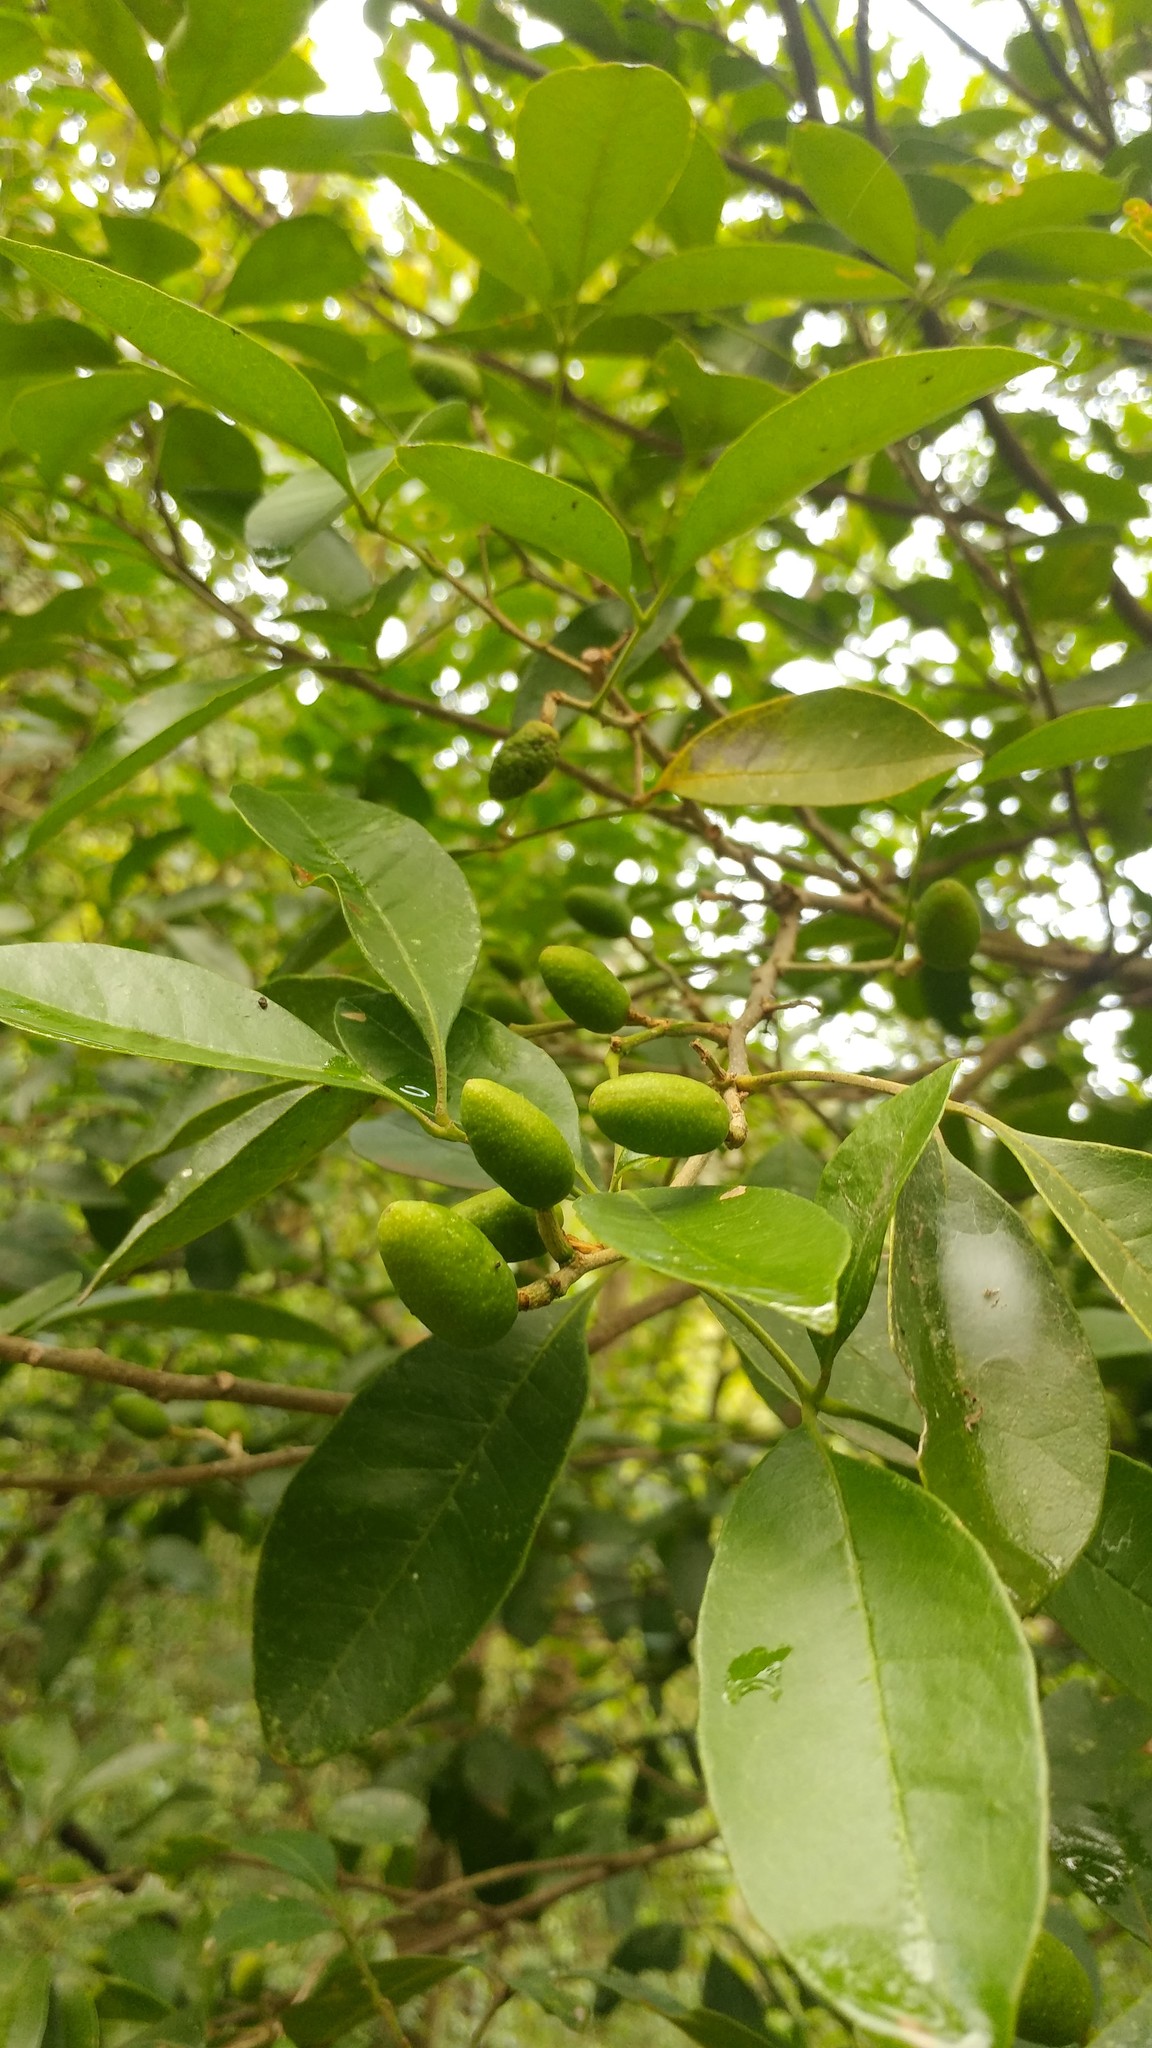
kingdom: Plantae
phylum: Tracheophyta
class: Magnoliopsida
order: Sapindales
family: Rutaceae
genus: Casimiroa
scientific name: Casimiroa greggii
